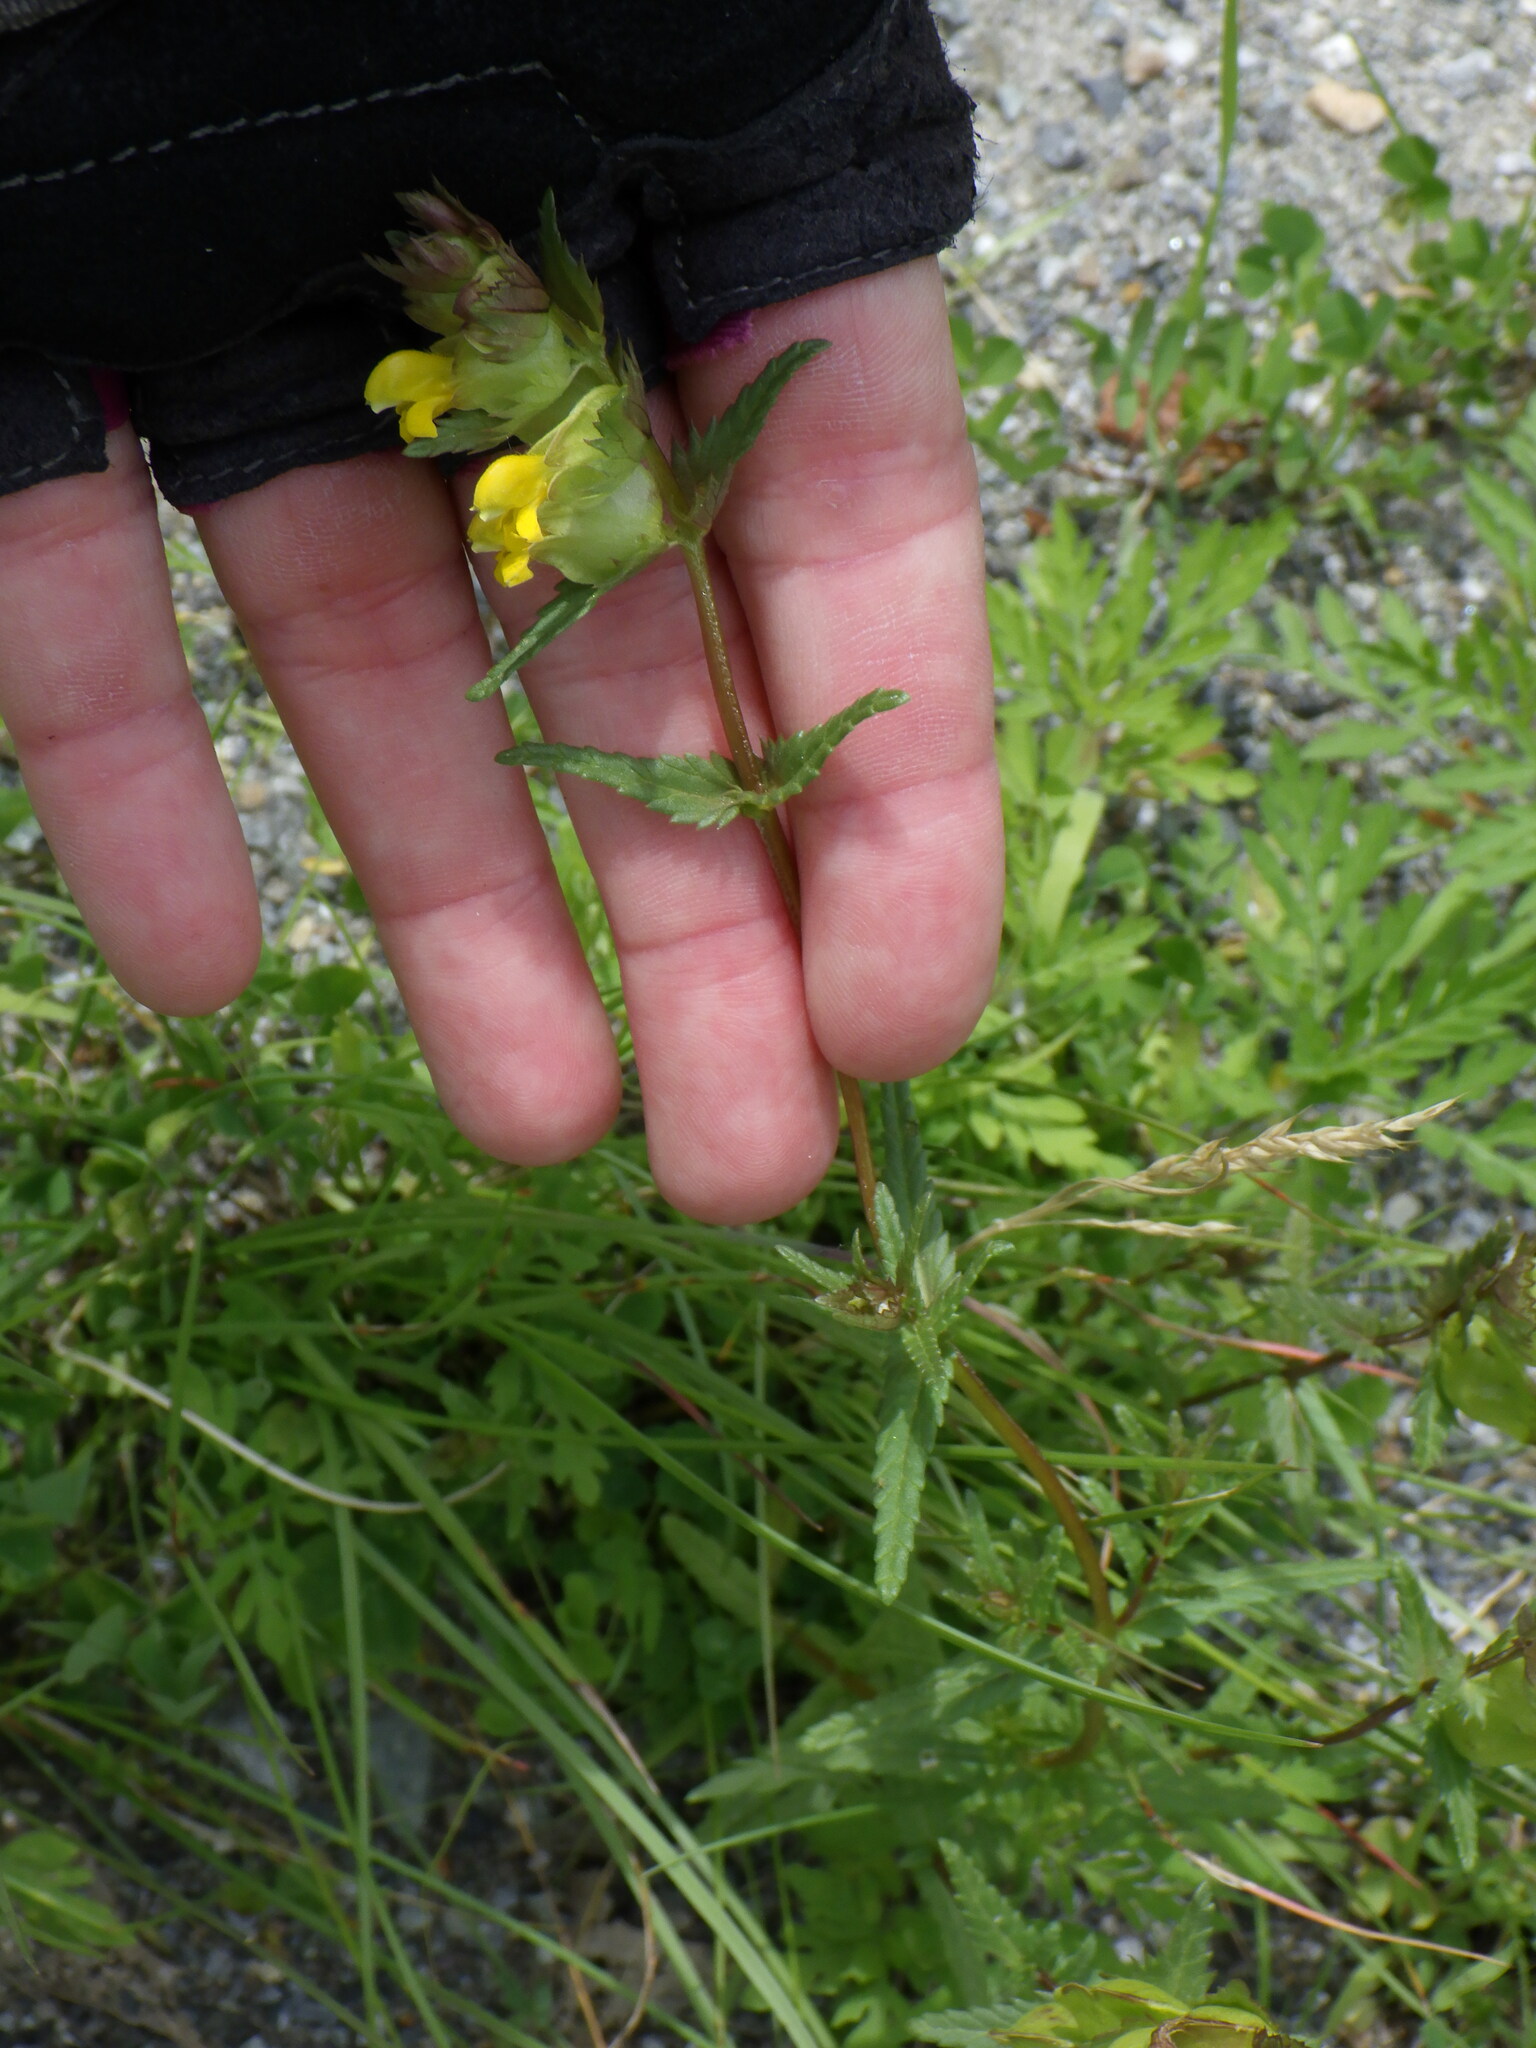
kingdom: Plantae
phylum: Tracheophyta
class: Magnoliopsida
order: Lamiales
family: Orobanchaceae
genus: Rhinanthus
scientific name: Rhinanthus groenlandicus
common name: Little yellow rattle
